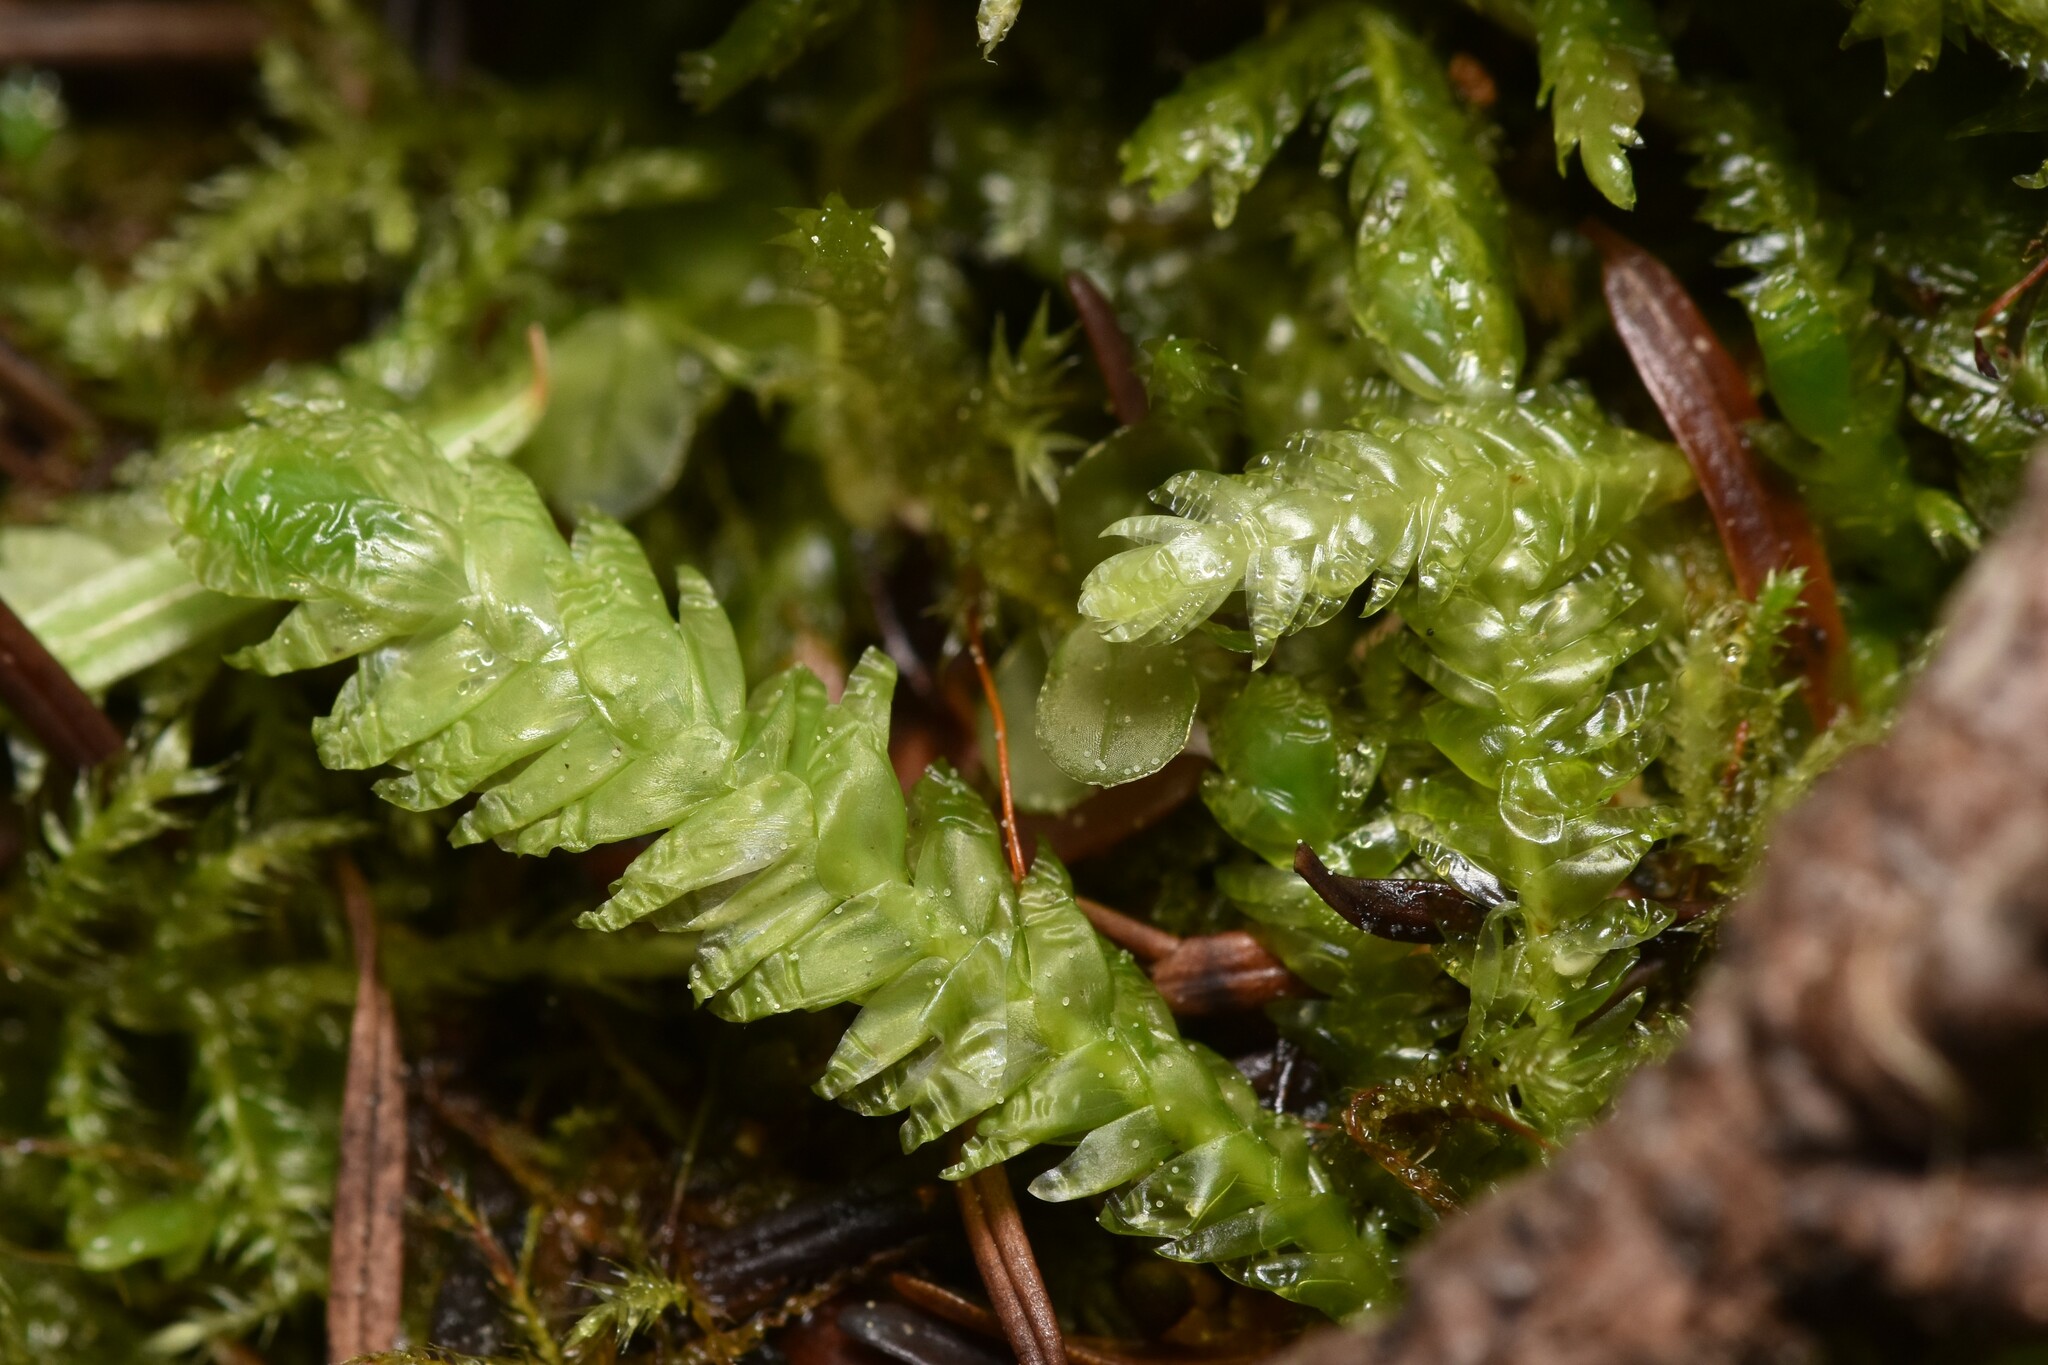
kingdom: Plantae
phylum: Bryophyta
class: Bryopsida
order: Hypnales
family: Plagiotheciaceae
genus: Plagiothecium
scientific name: Plagiothecium undulatum
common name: Waved silk-moss
